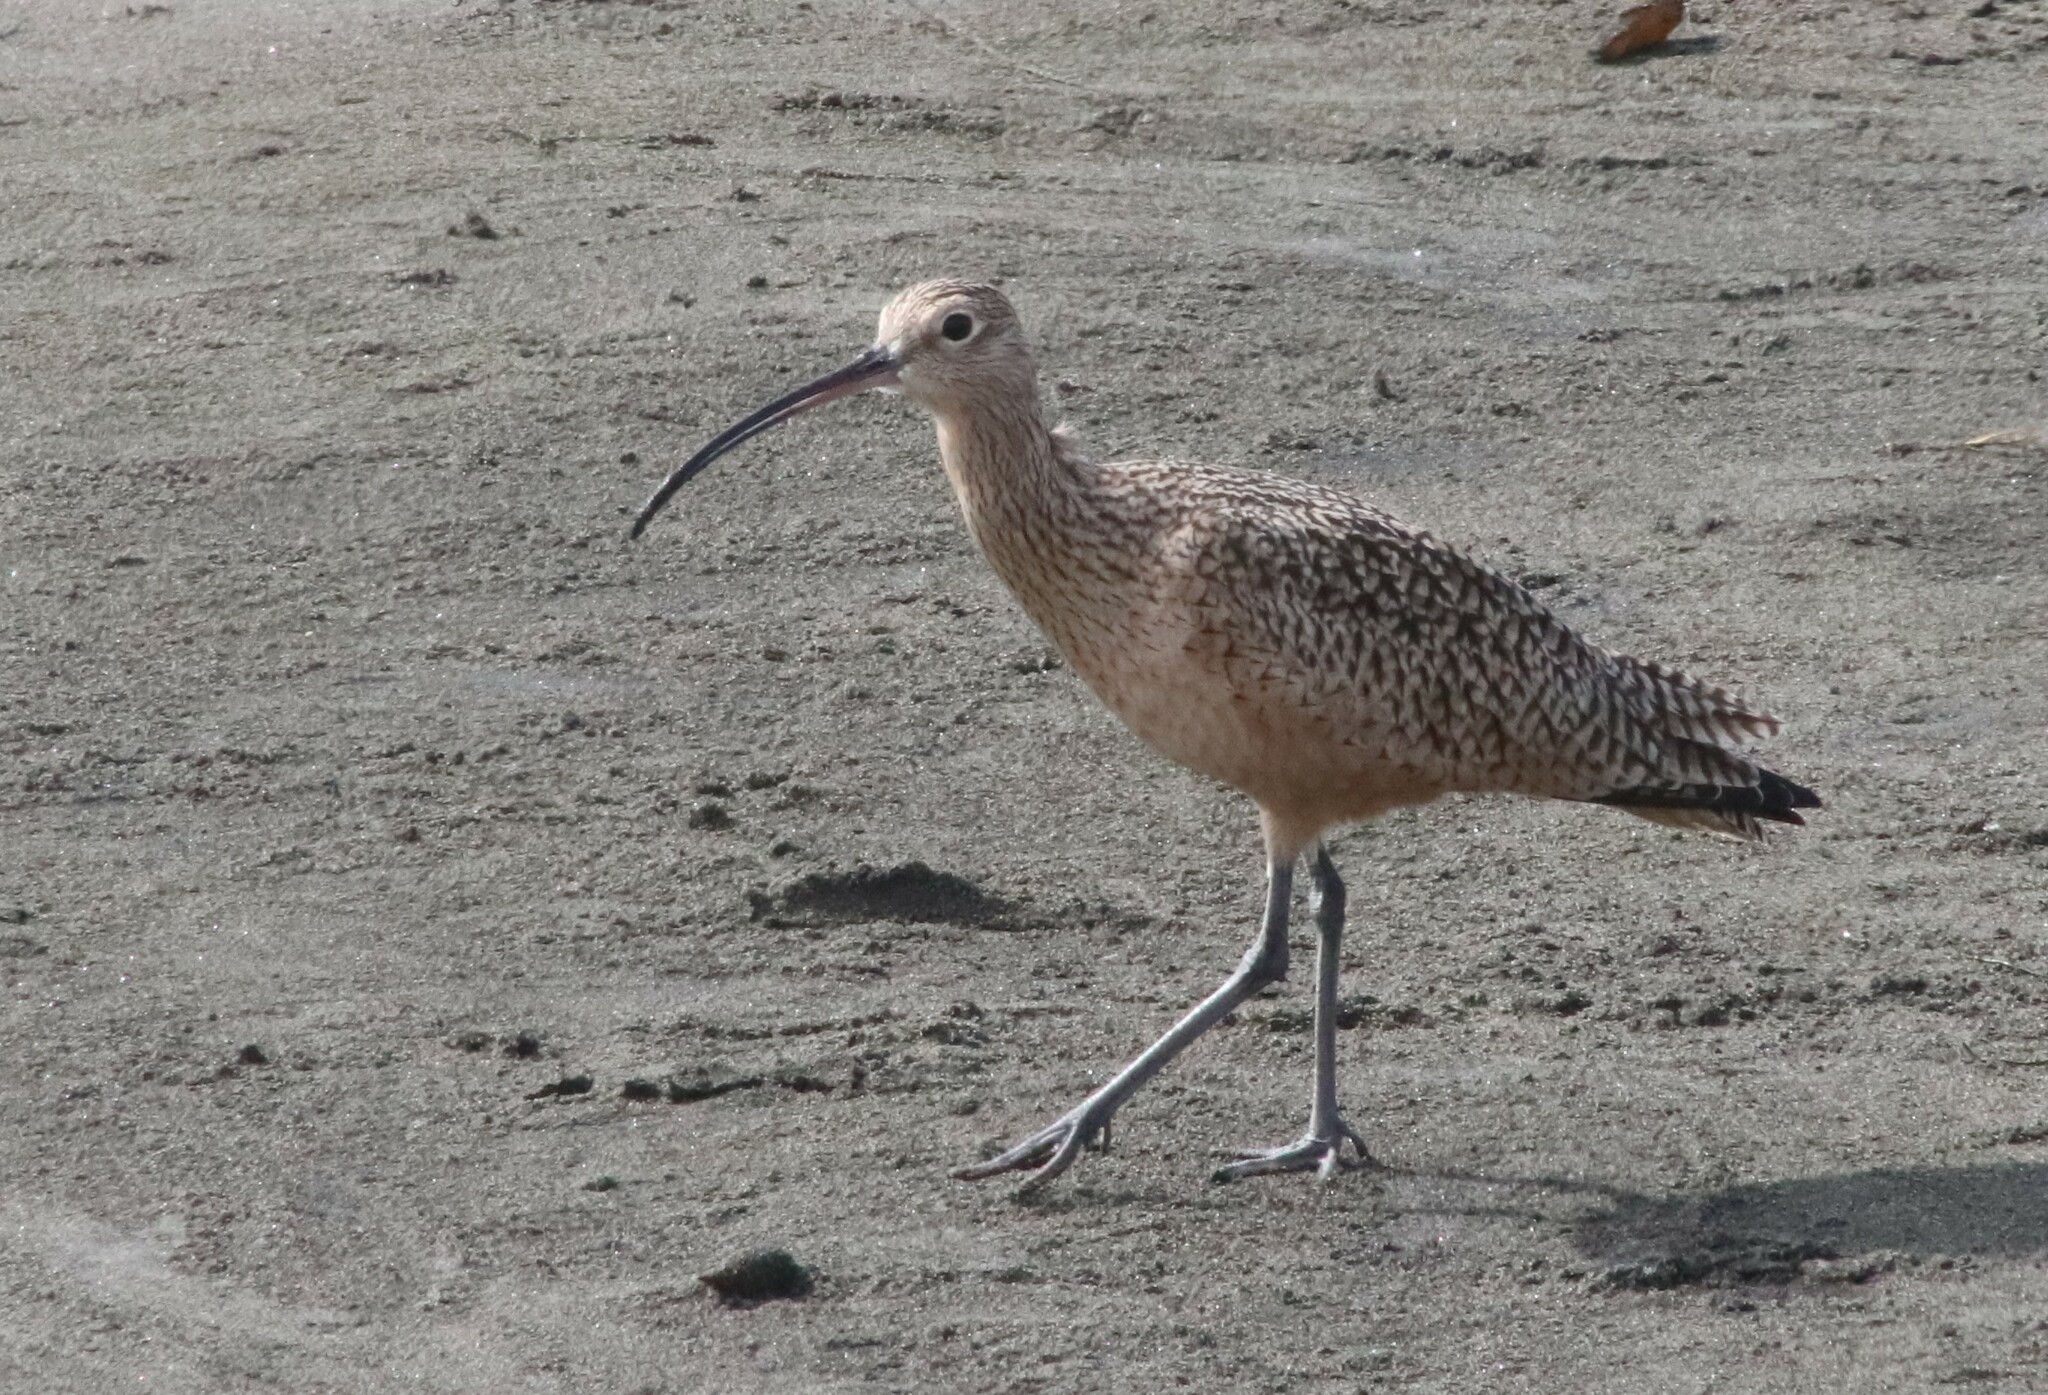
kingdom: Animalia
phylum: Chordata
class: Aves
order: Charadriiformes
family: Scolopacidae
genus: Numenius
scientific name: Numenius americanus
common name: Long-billed curlew
